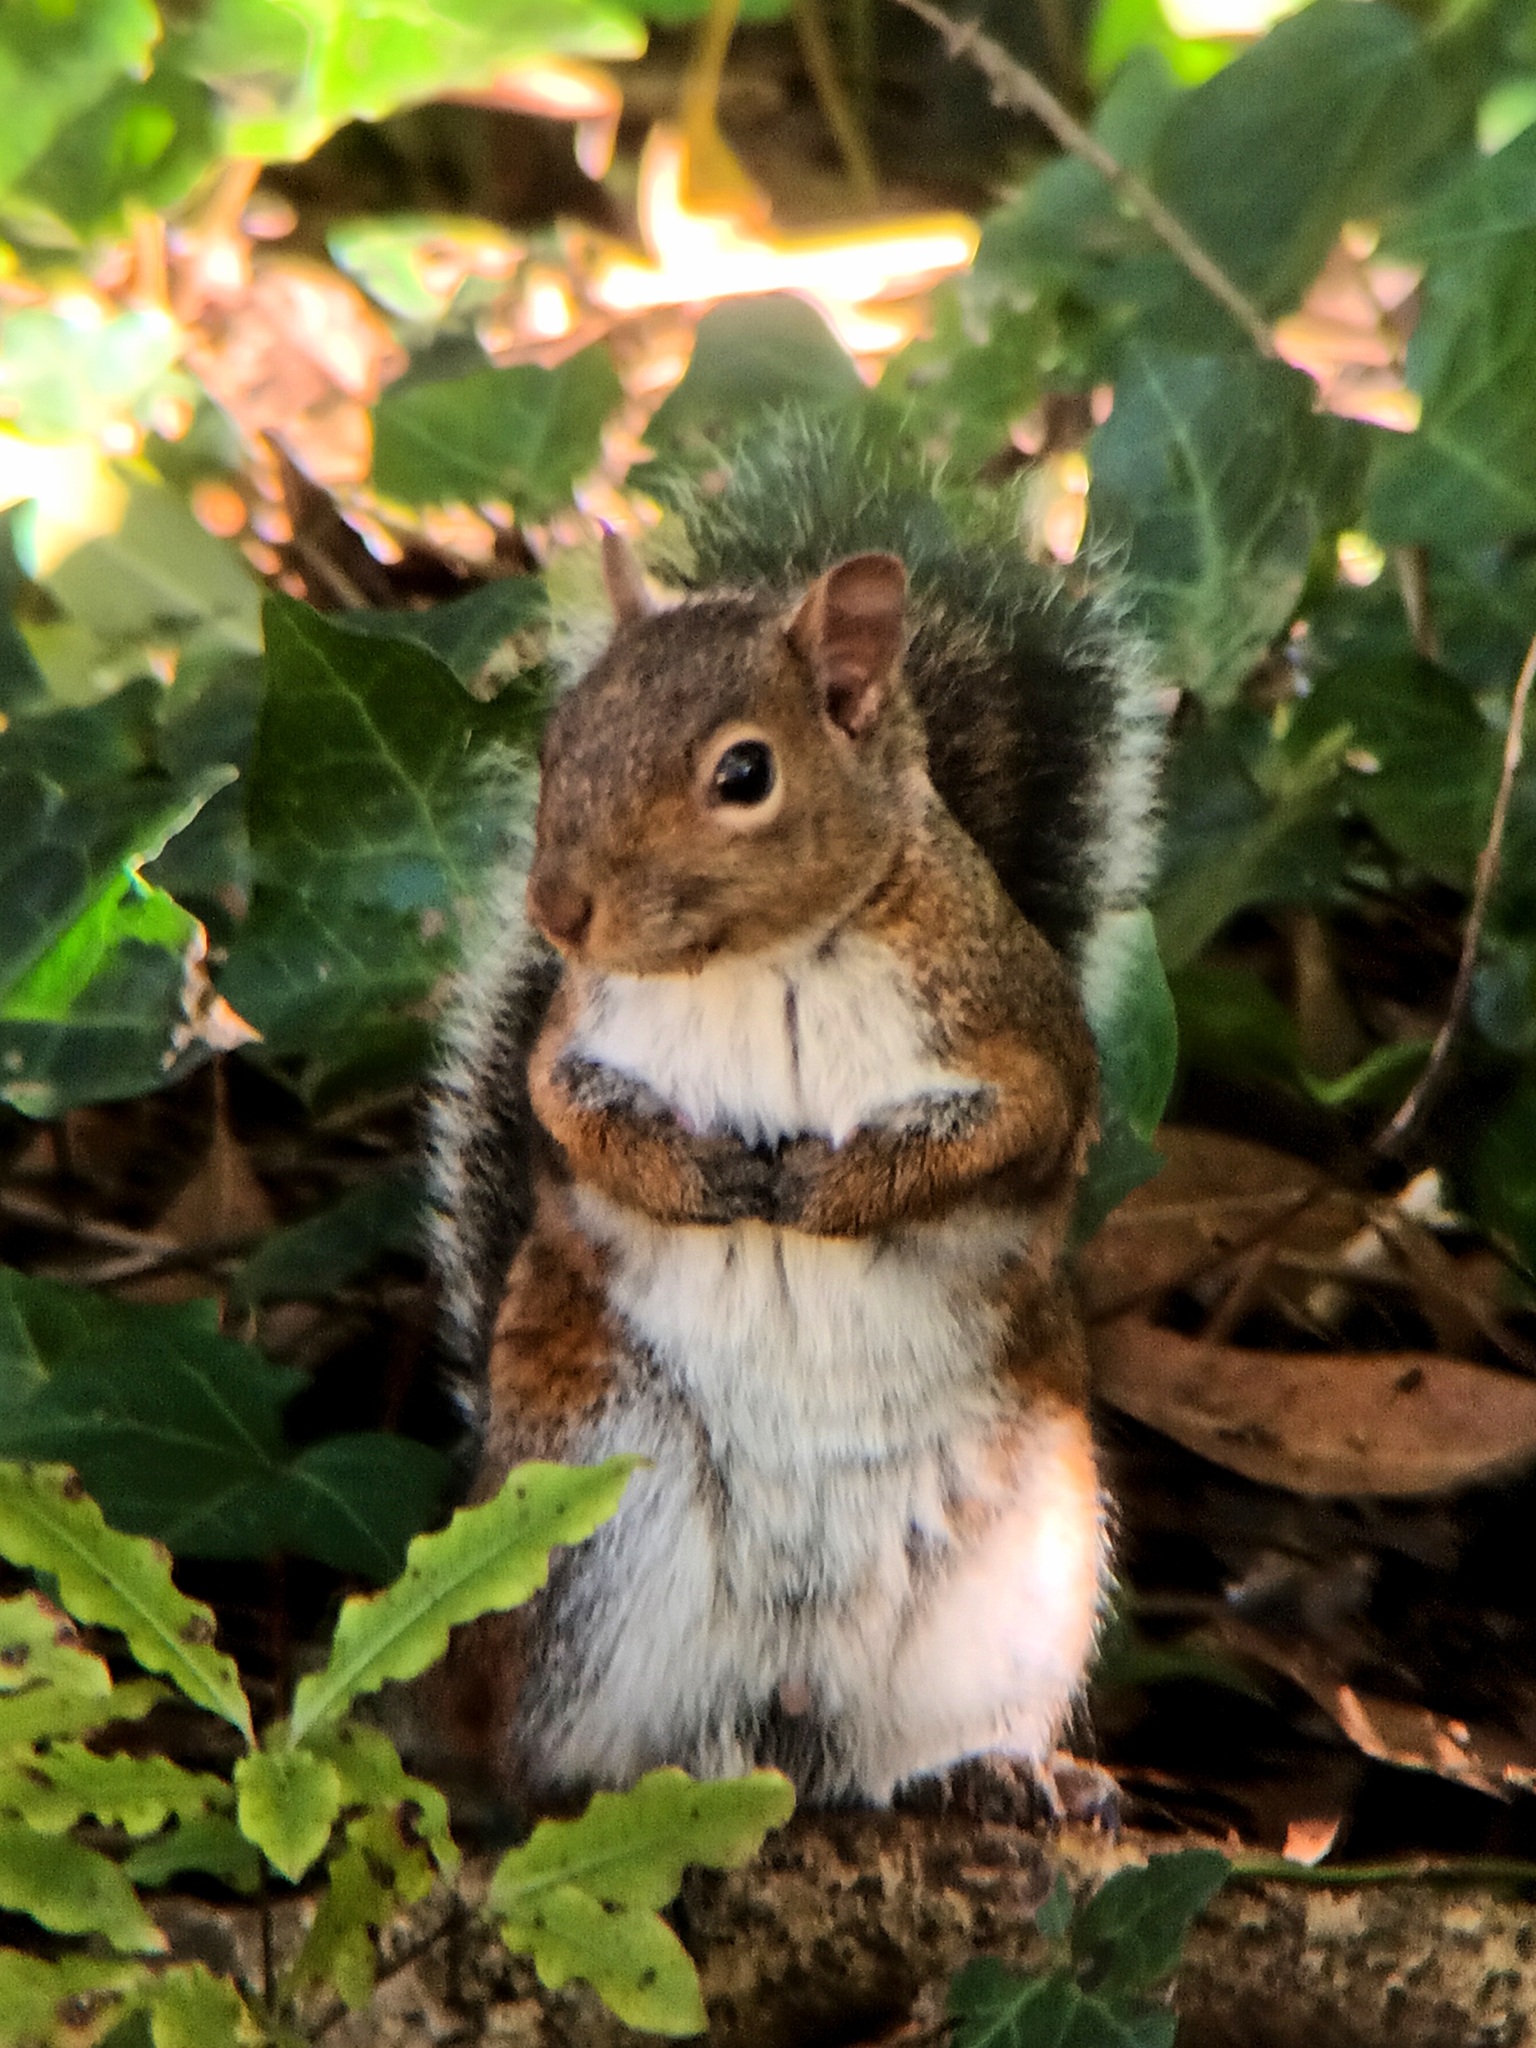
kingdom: Animalia
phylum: Chordata
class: Mammalia
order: Rodentia
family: Sciuridae
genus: Sciurus
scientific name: Sciurus carolinensis
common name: Eastern gray squirrel
